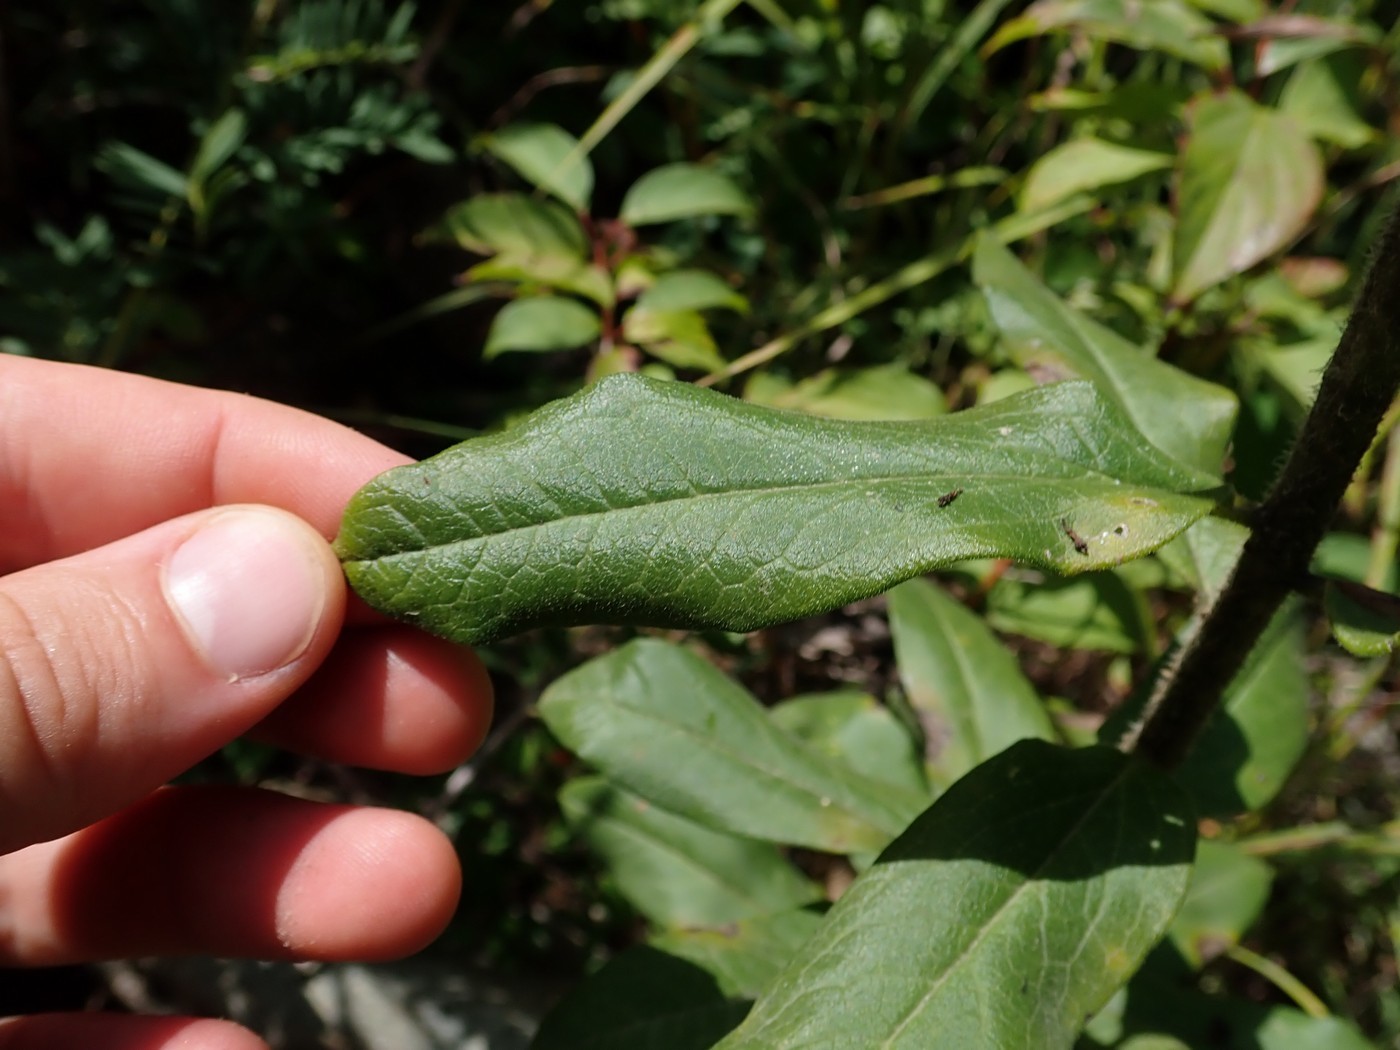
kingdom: Plantae
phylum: Tracheophyta
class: Magnoliopsida
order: Gentianales
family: Apocynaceae
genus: Asclepias
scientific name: Asclepias tuberosa
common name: Butterfly milkweed
